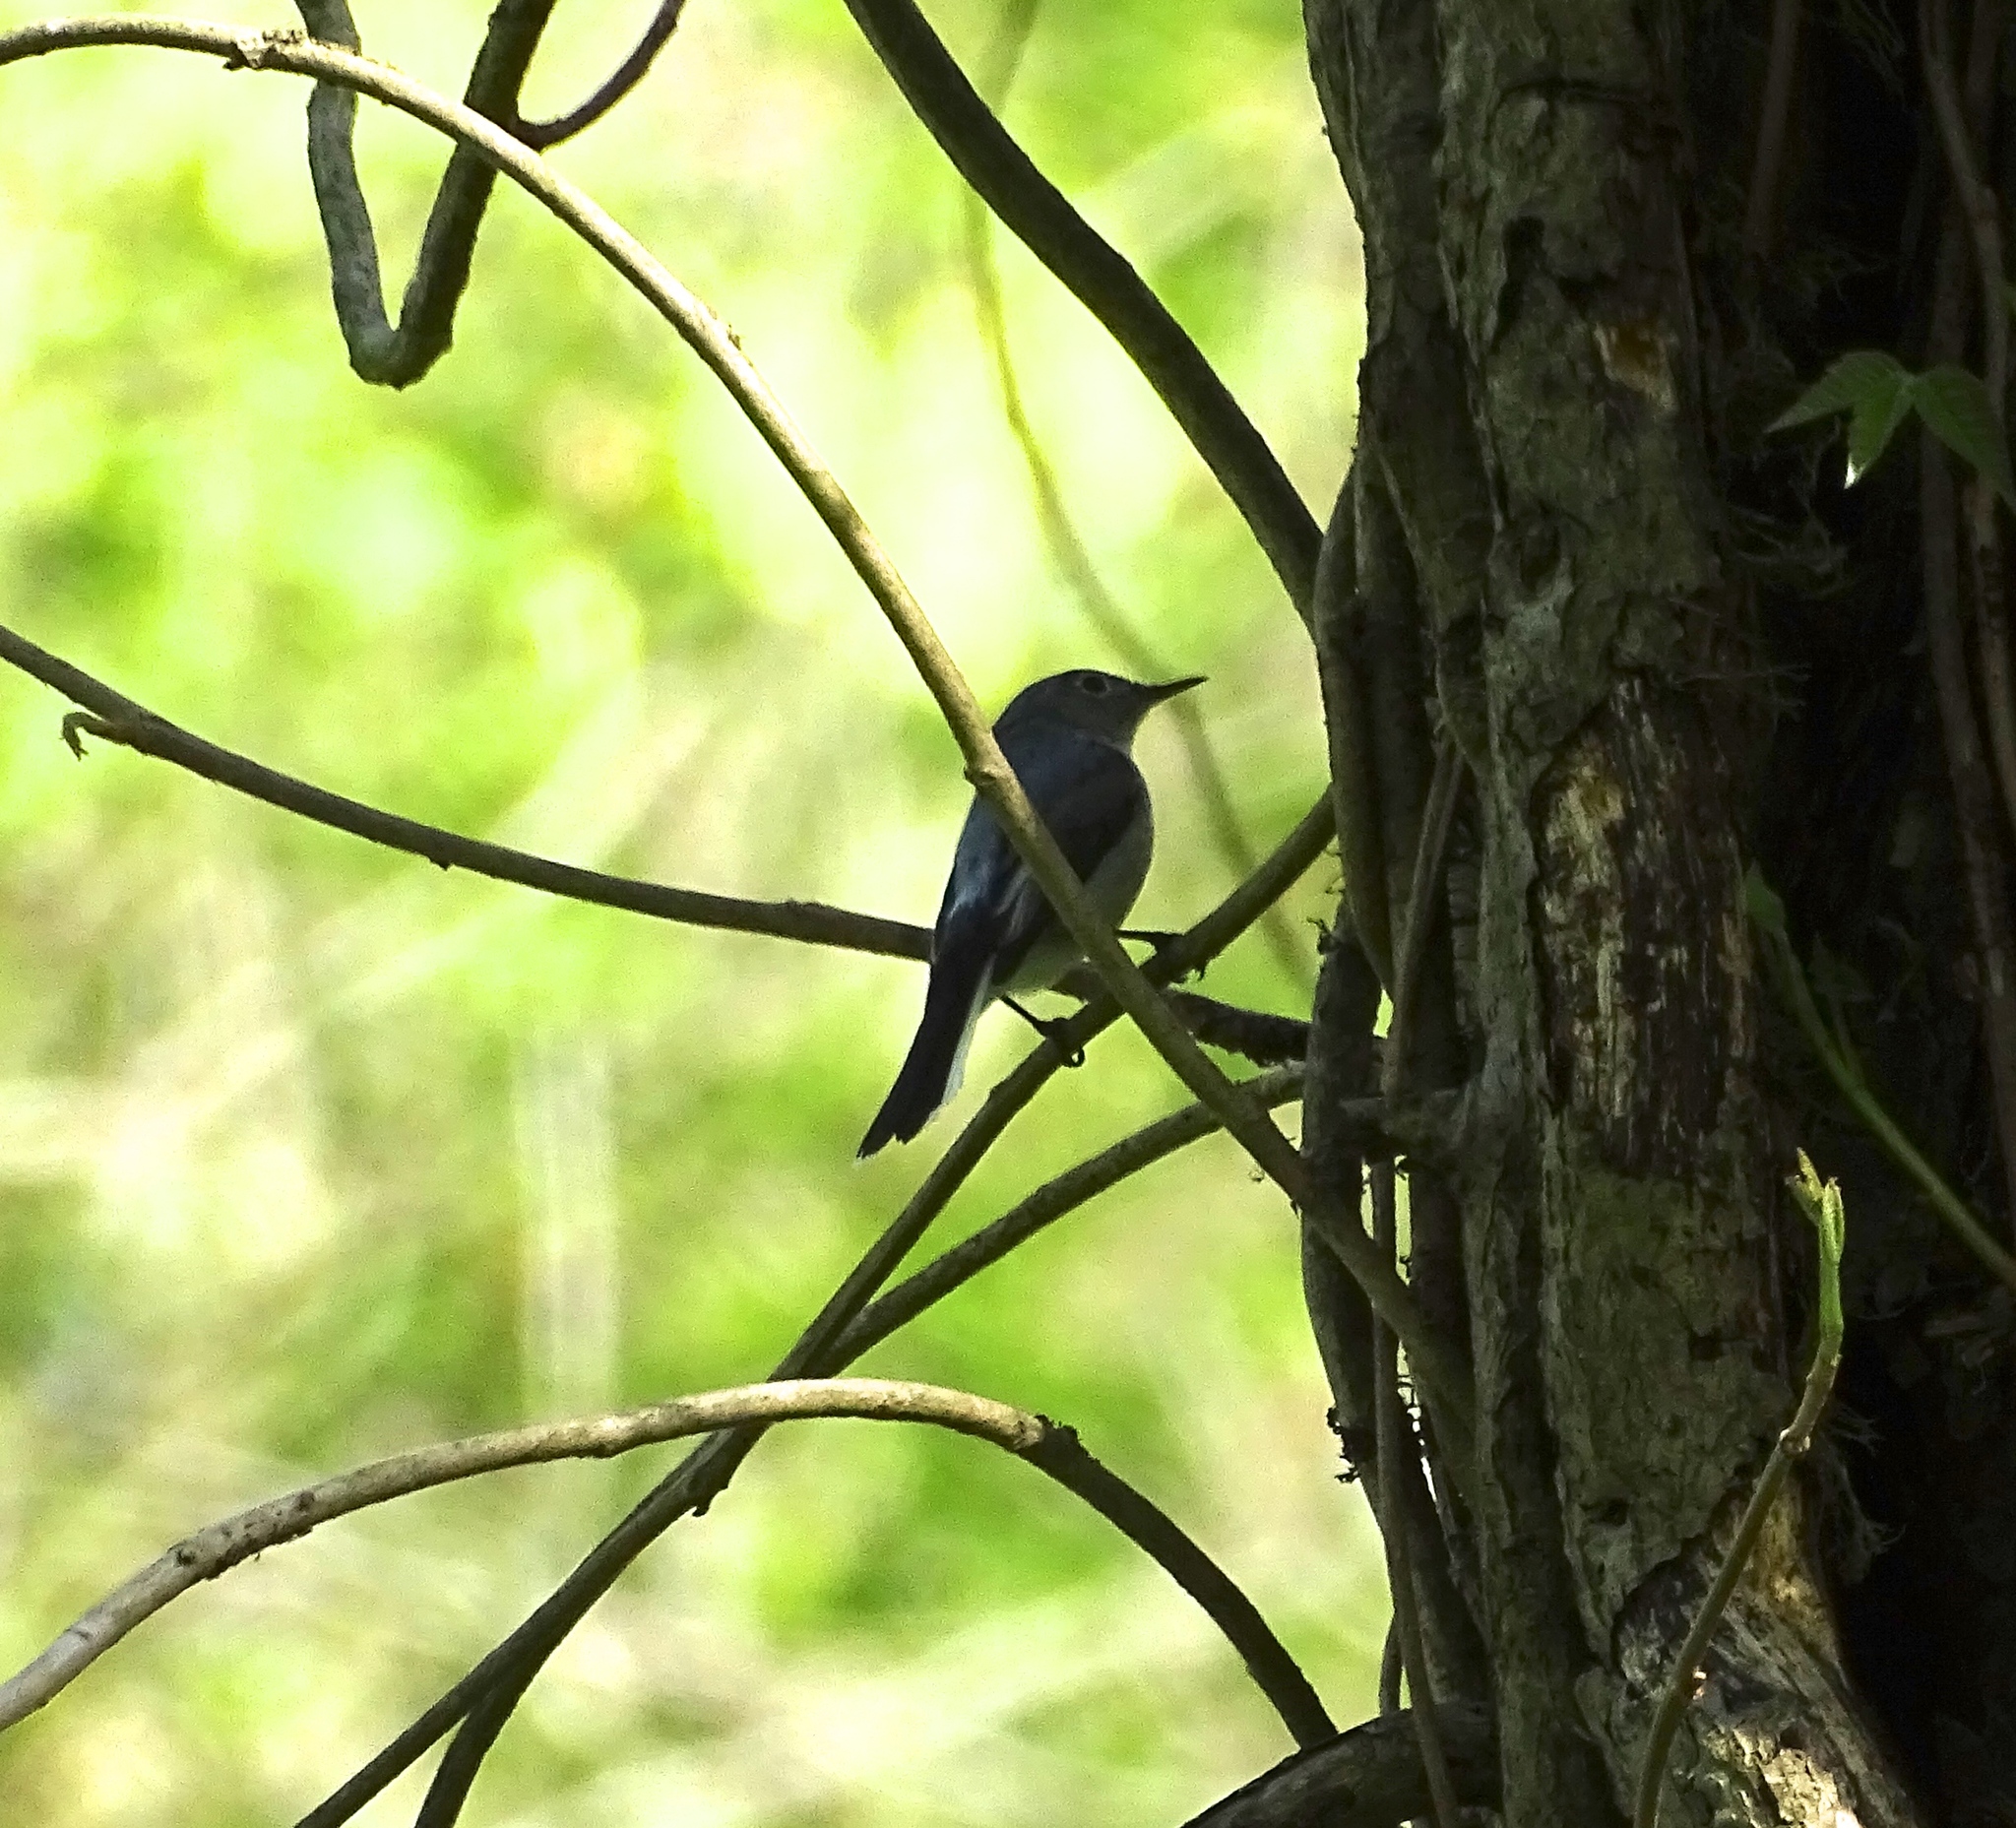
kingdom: Animalia
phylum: Chordata
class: Aves
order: Passeriformes
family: Polioptilidae
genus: Polioptila
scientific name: Polioptila caerulea
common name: Blue-gray gnatcatcher
